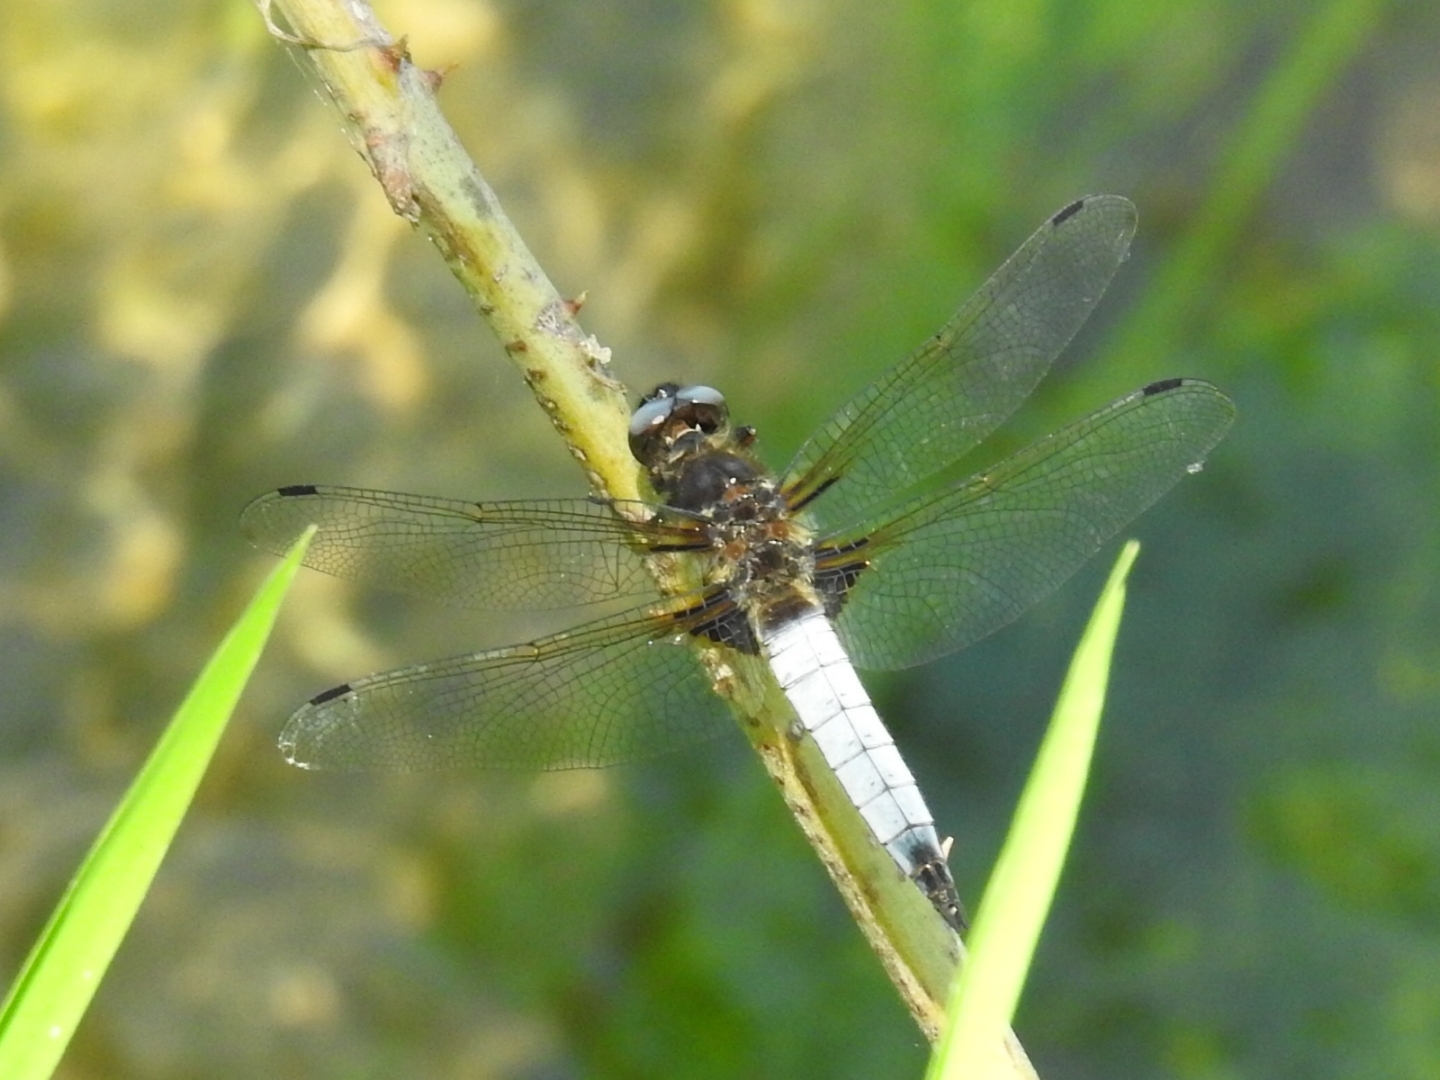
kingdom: Animalia
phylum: Arthropoda
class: Insecta
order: Odonata
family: Libellulidae
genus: Libellula
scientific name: Libellula fulva
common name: Blue chaser
